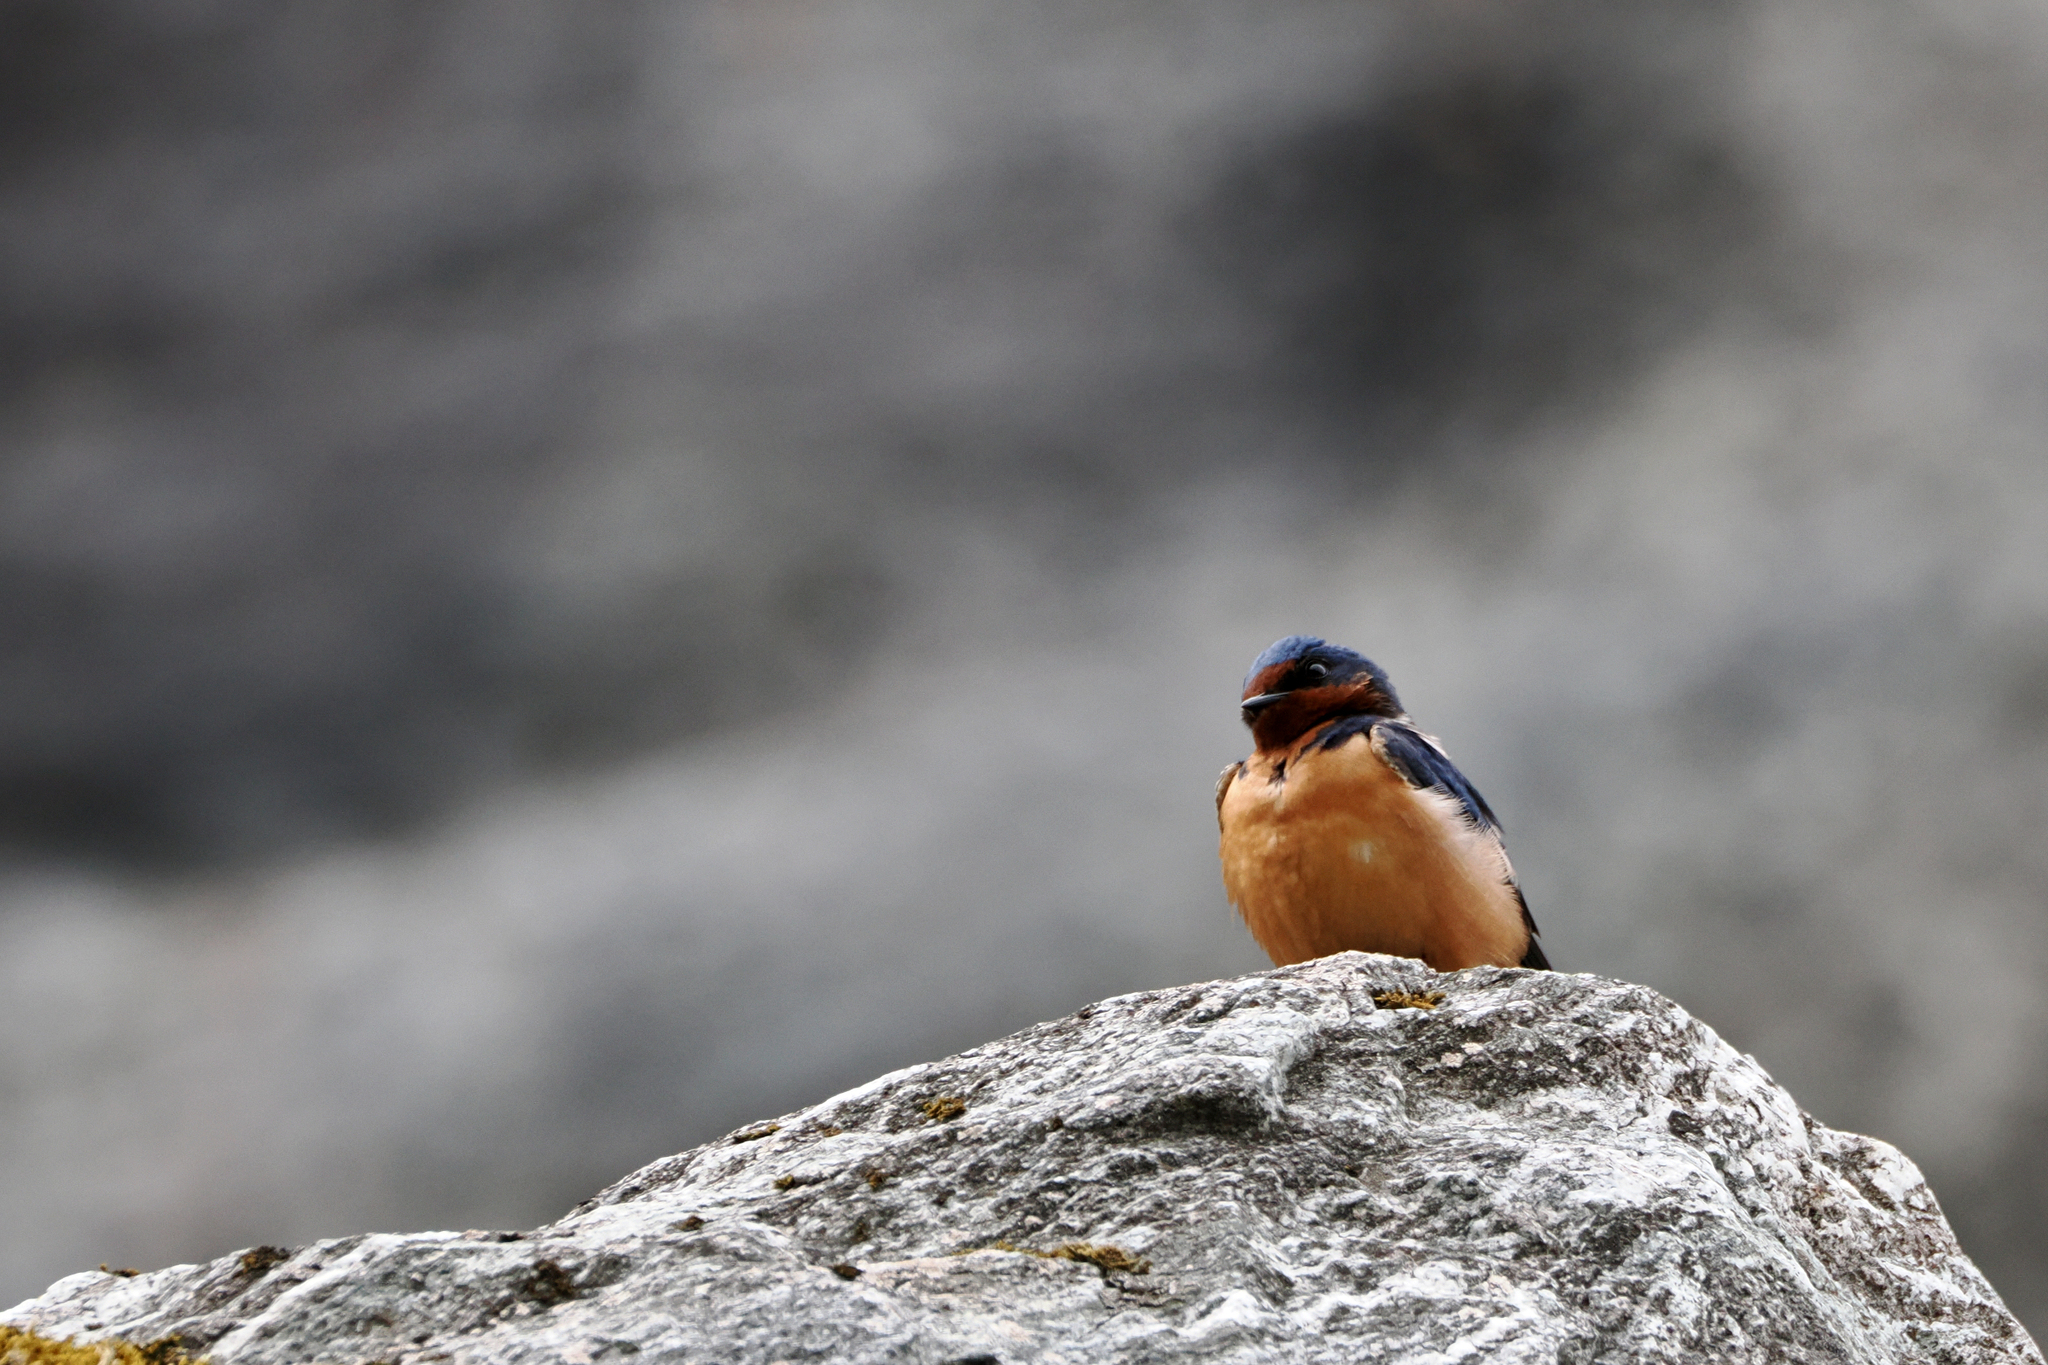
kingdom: Animalia
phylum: Chordata
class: Aves
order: Passeriformes
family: Hirundinidae
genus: Hirundo
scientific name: Hirundo rustica
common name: Barn swallow
